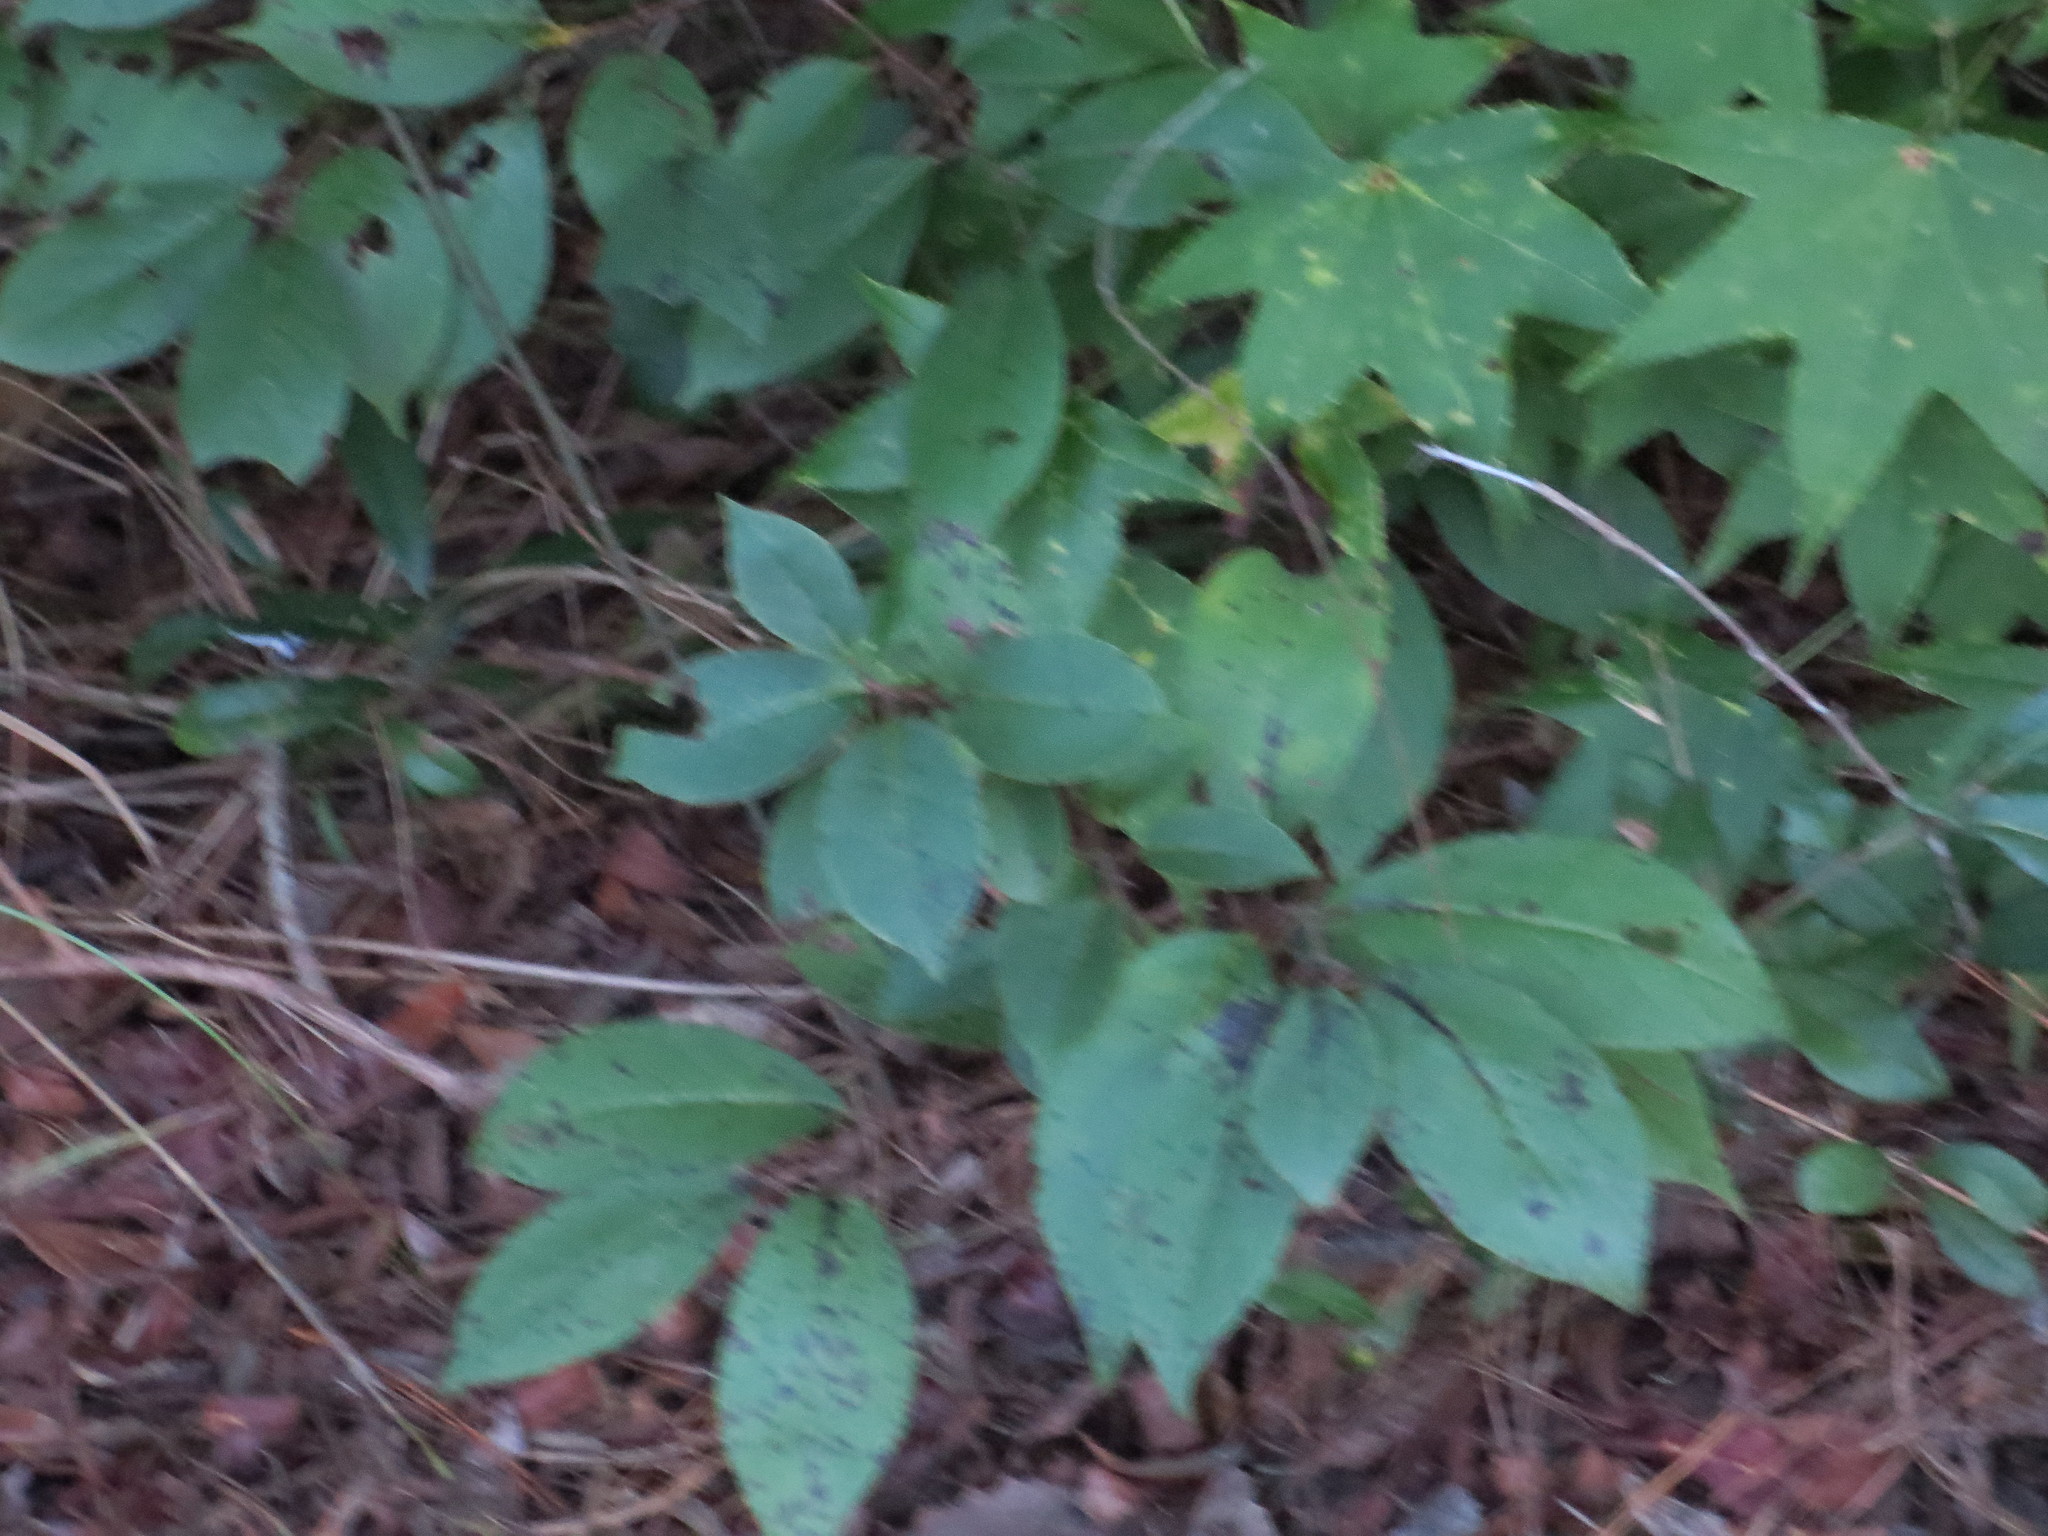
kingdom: Plantae
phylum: Tracheophyta
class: Magnoliopsida
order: Ericales
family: Ebenaceae
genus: Diospyros
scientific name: Diospyros virginiana
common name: Persimmon
